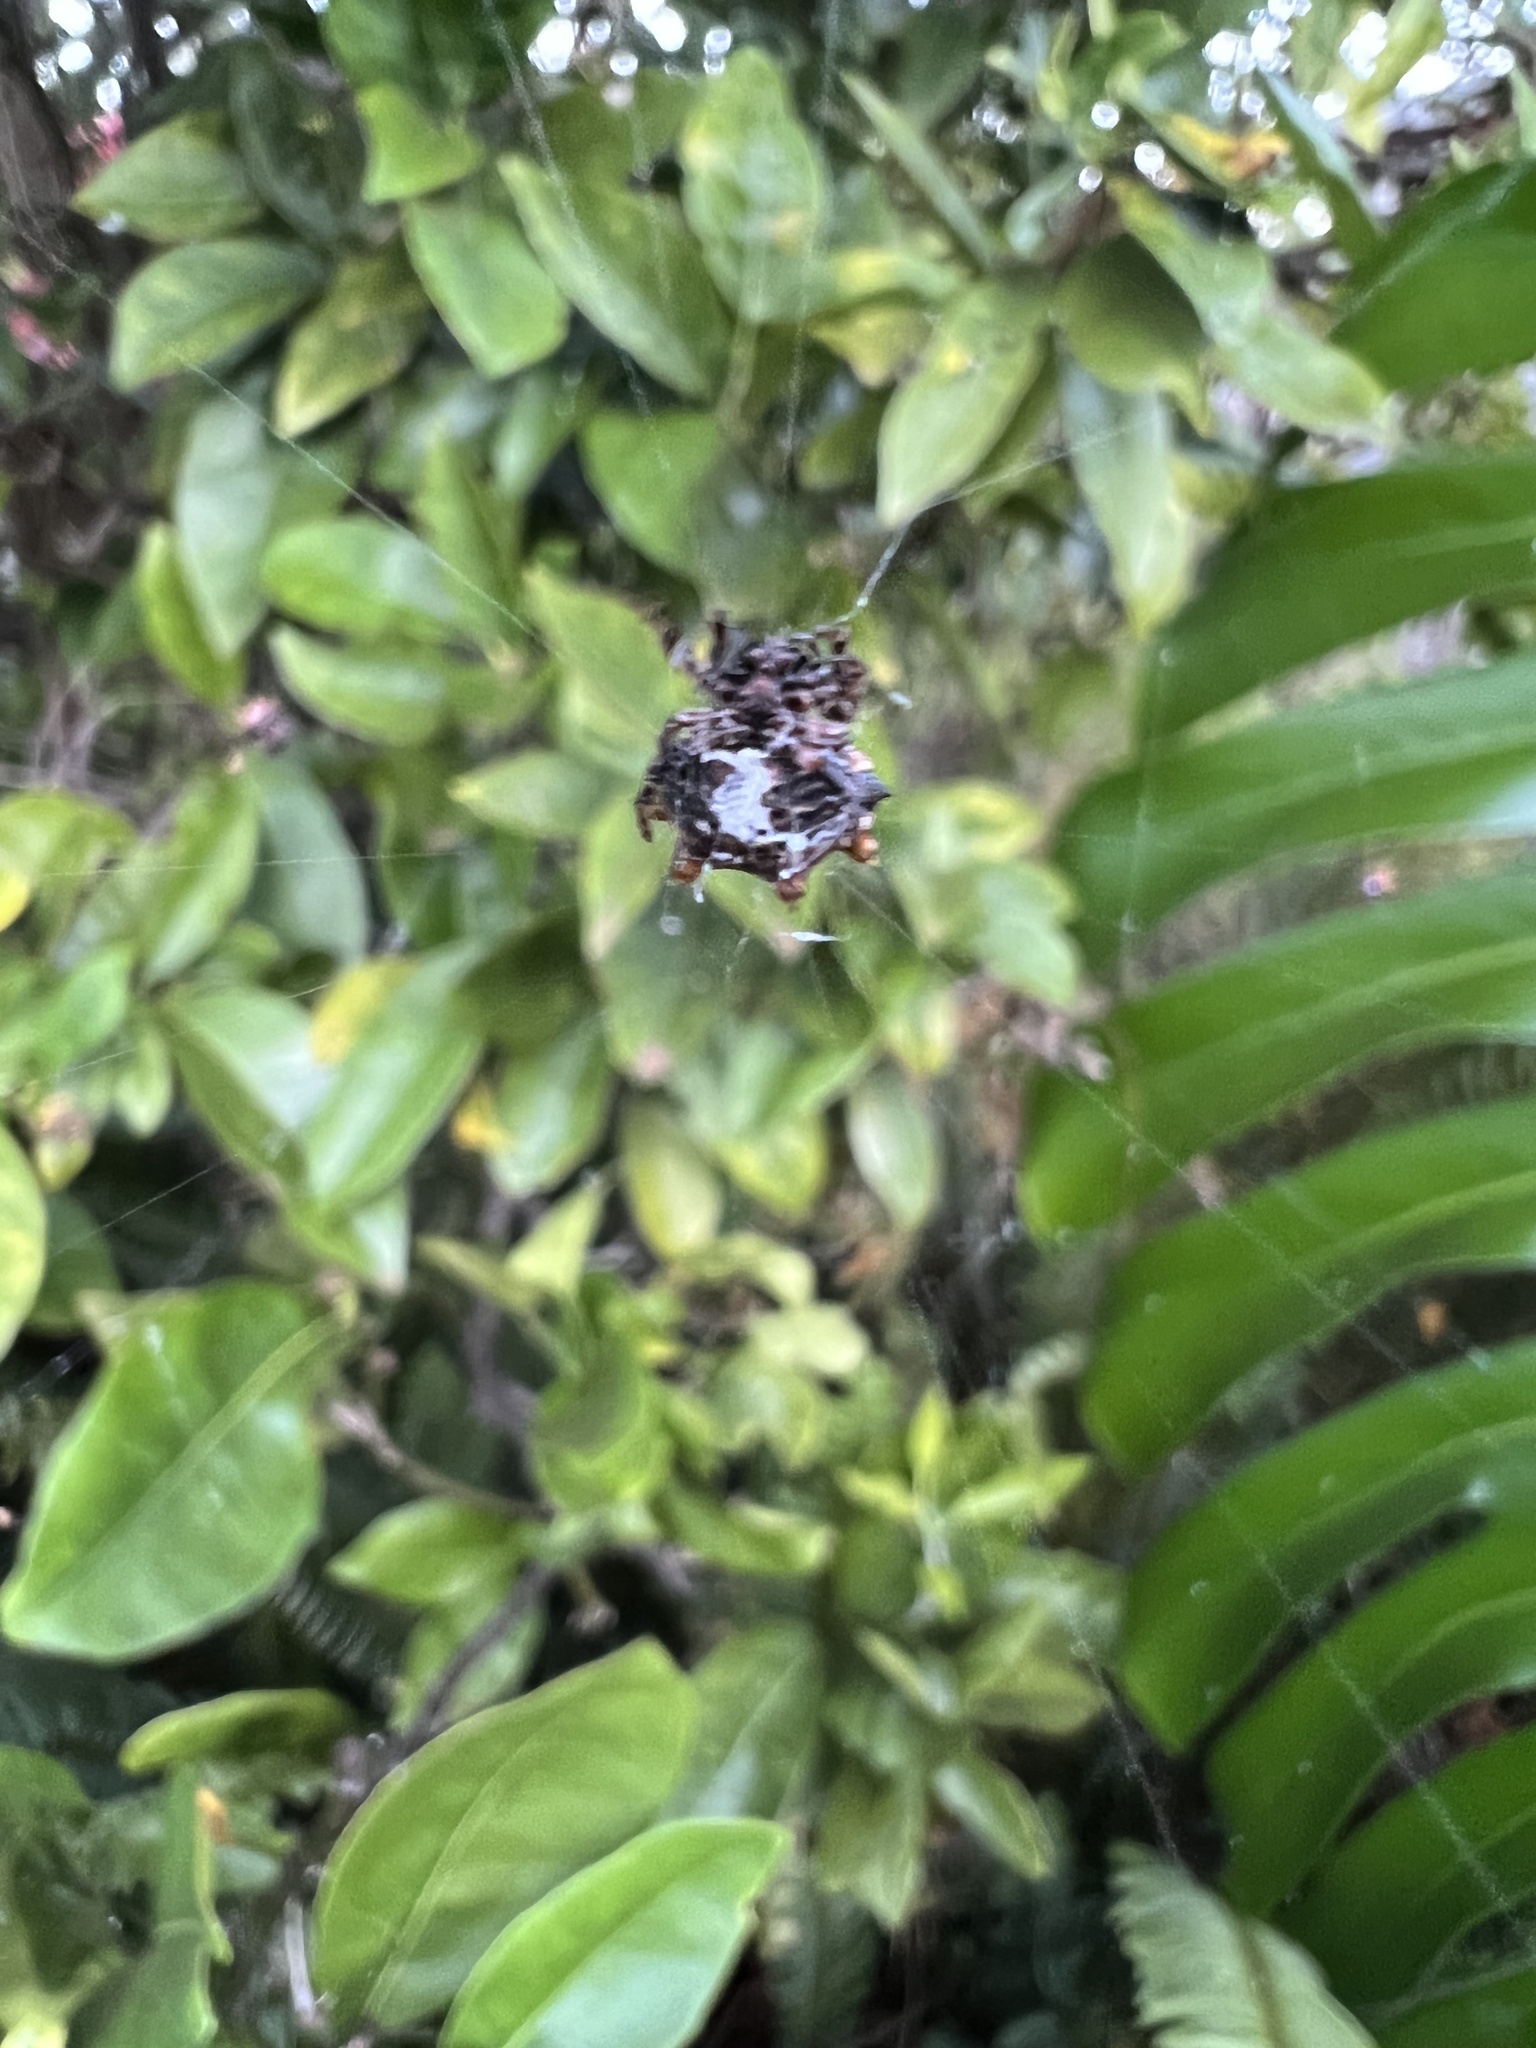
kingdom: Animalia
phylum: Arthropoda
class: Arachnida
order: Araneae
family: Araneidae
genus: Thelacantha
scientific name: Thelacantha brevispina
